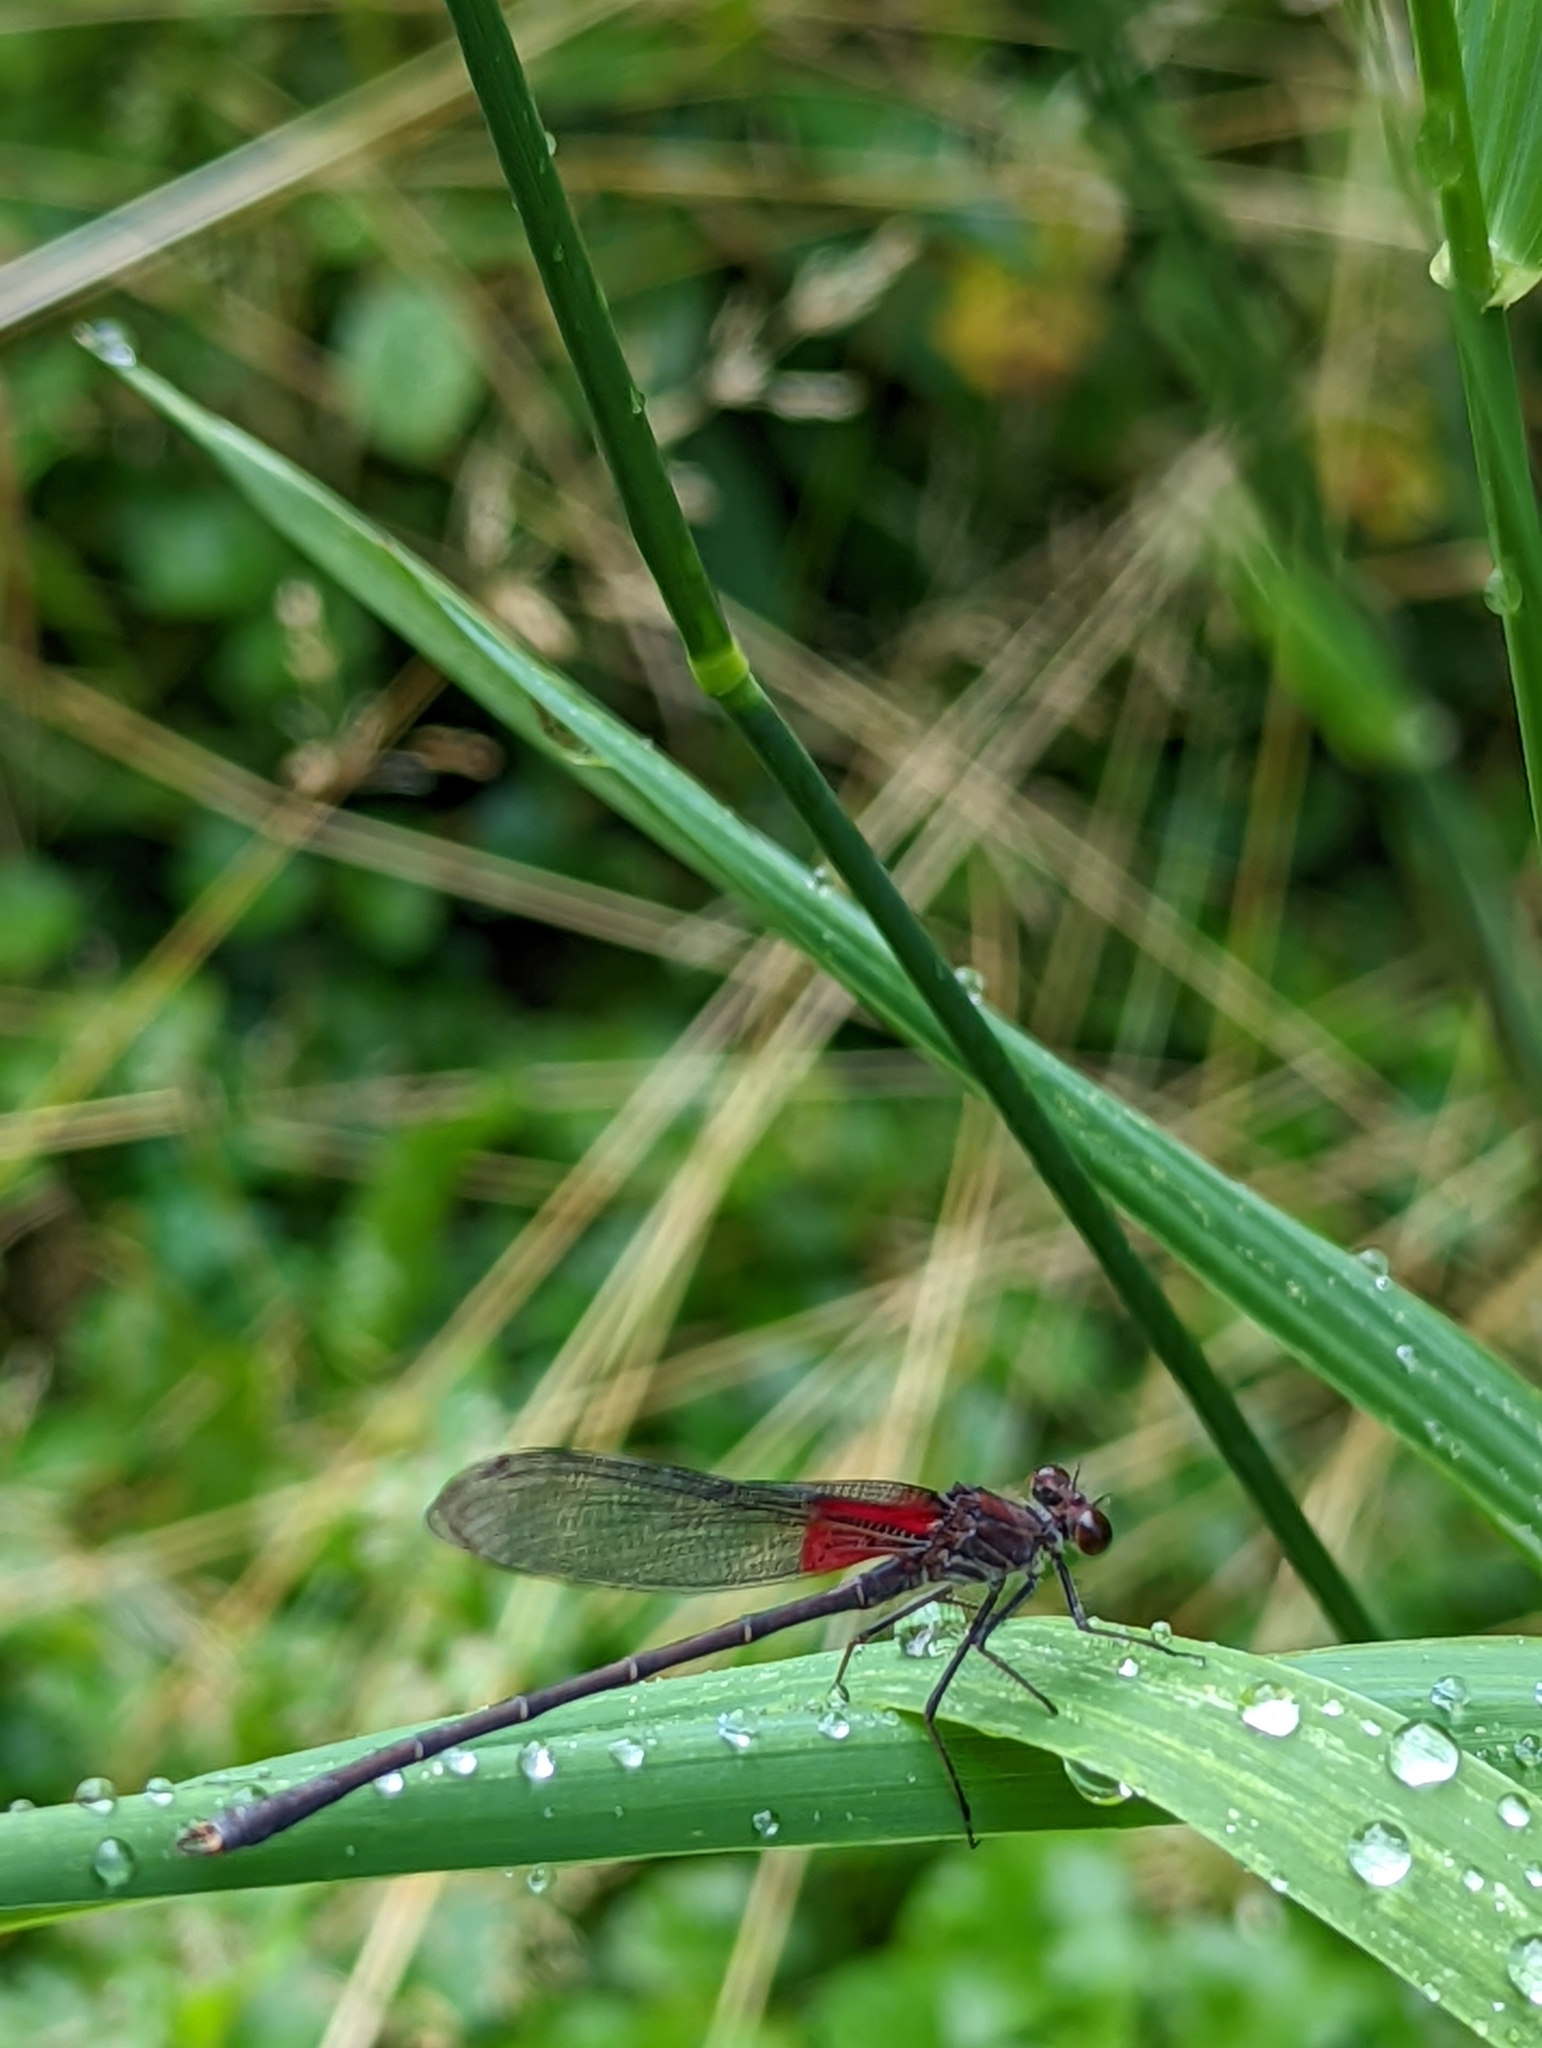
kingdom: Animalia
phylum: Arthropoda
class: Insecta
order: Odonata
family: Calopterygidae
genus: Hetaerina
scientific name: Hetaerina americana
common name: American rubyspot
